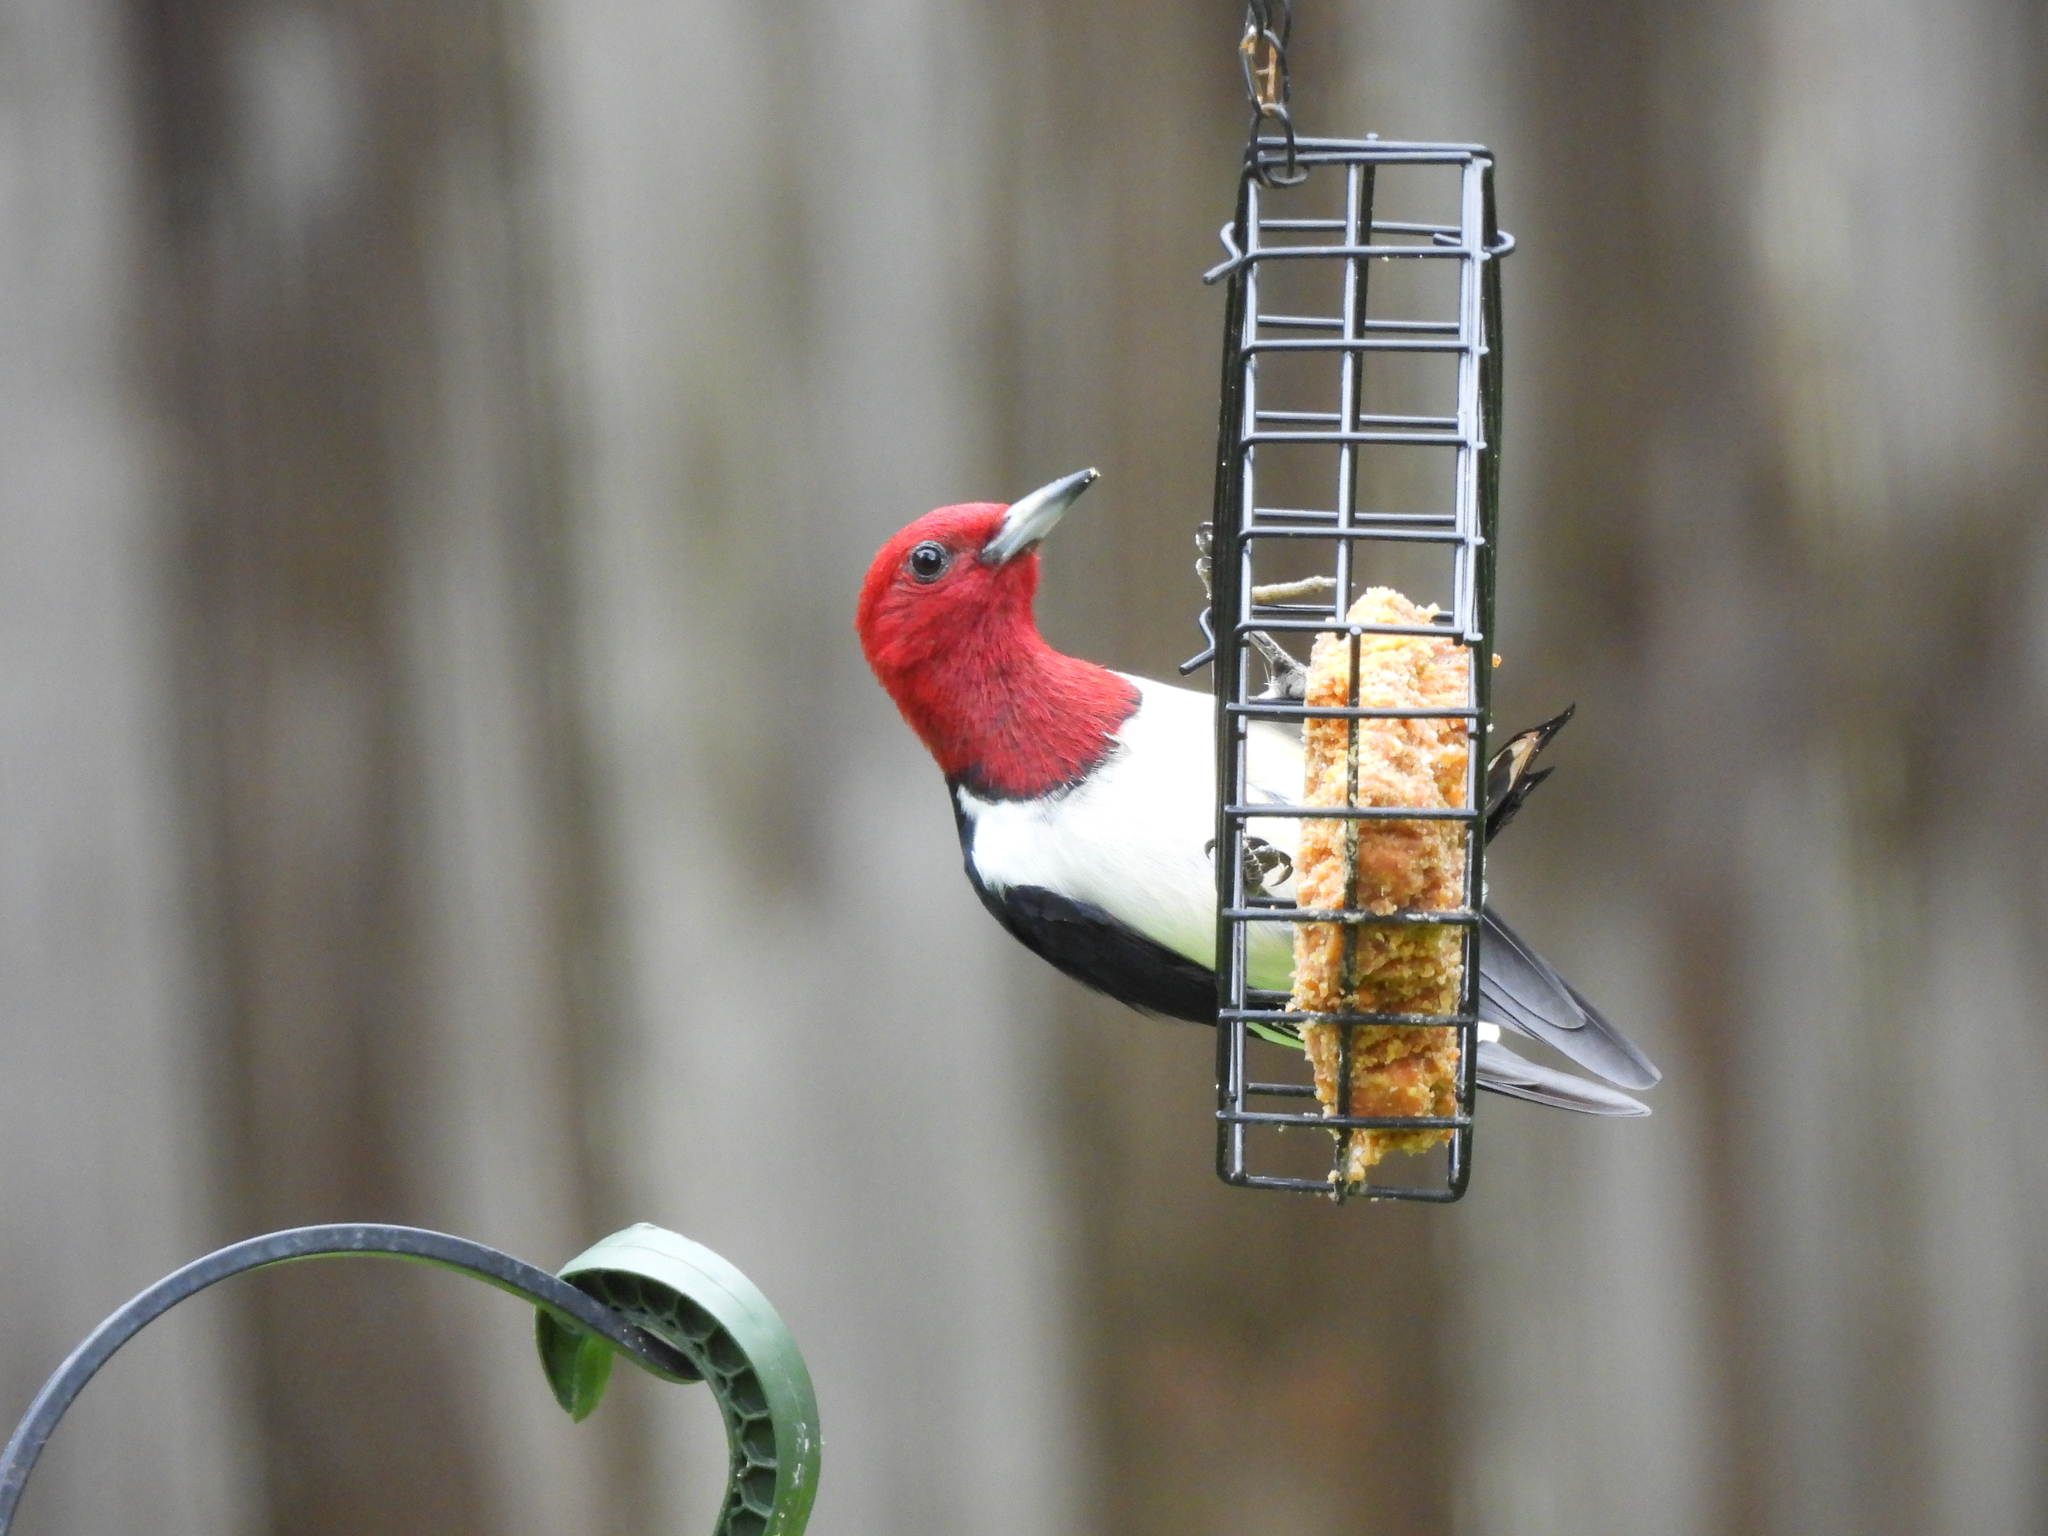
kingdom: Animalia
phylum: Chordata
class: Aves
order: Piciformes
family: Picidae
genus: Melanerpes
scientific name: Melanerpes erythrocephalus
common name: Red-headed woodpecker
